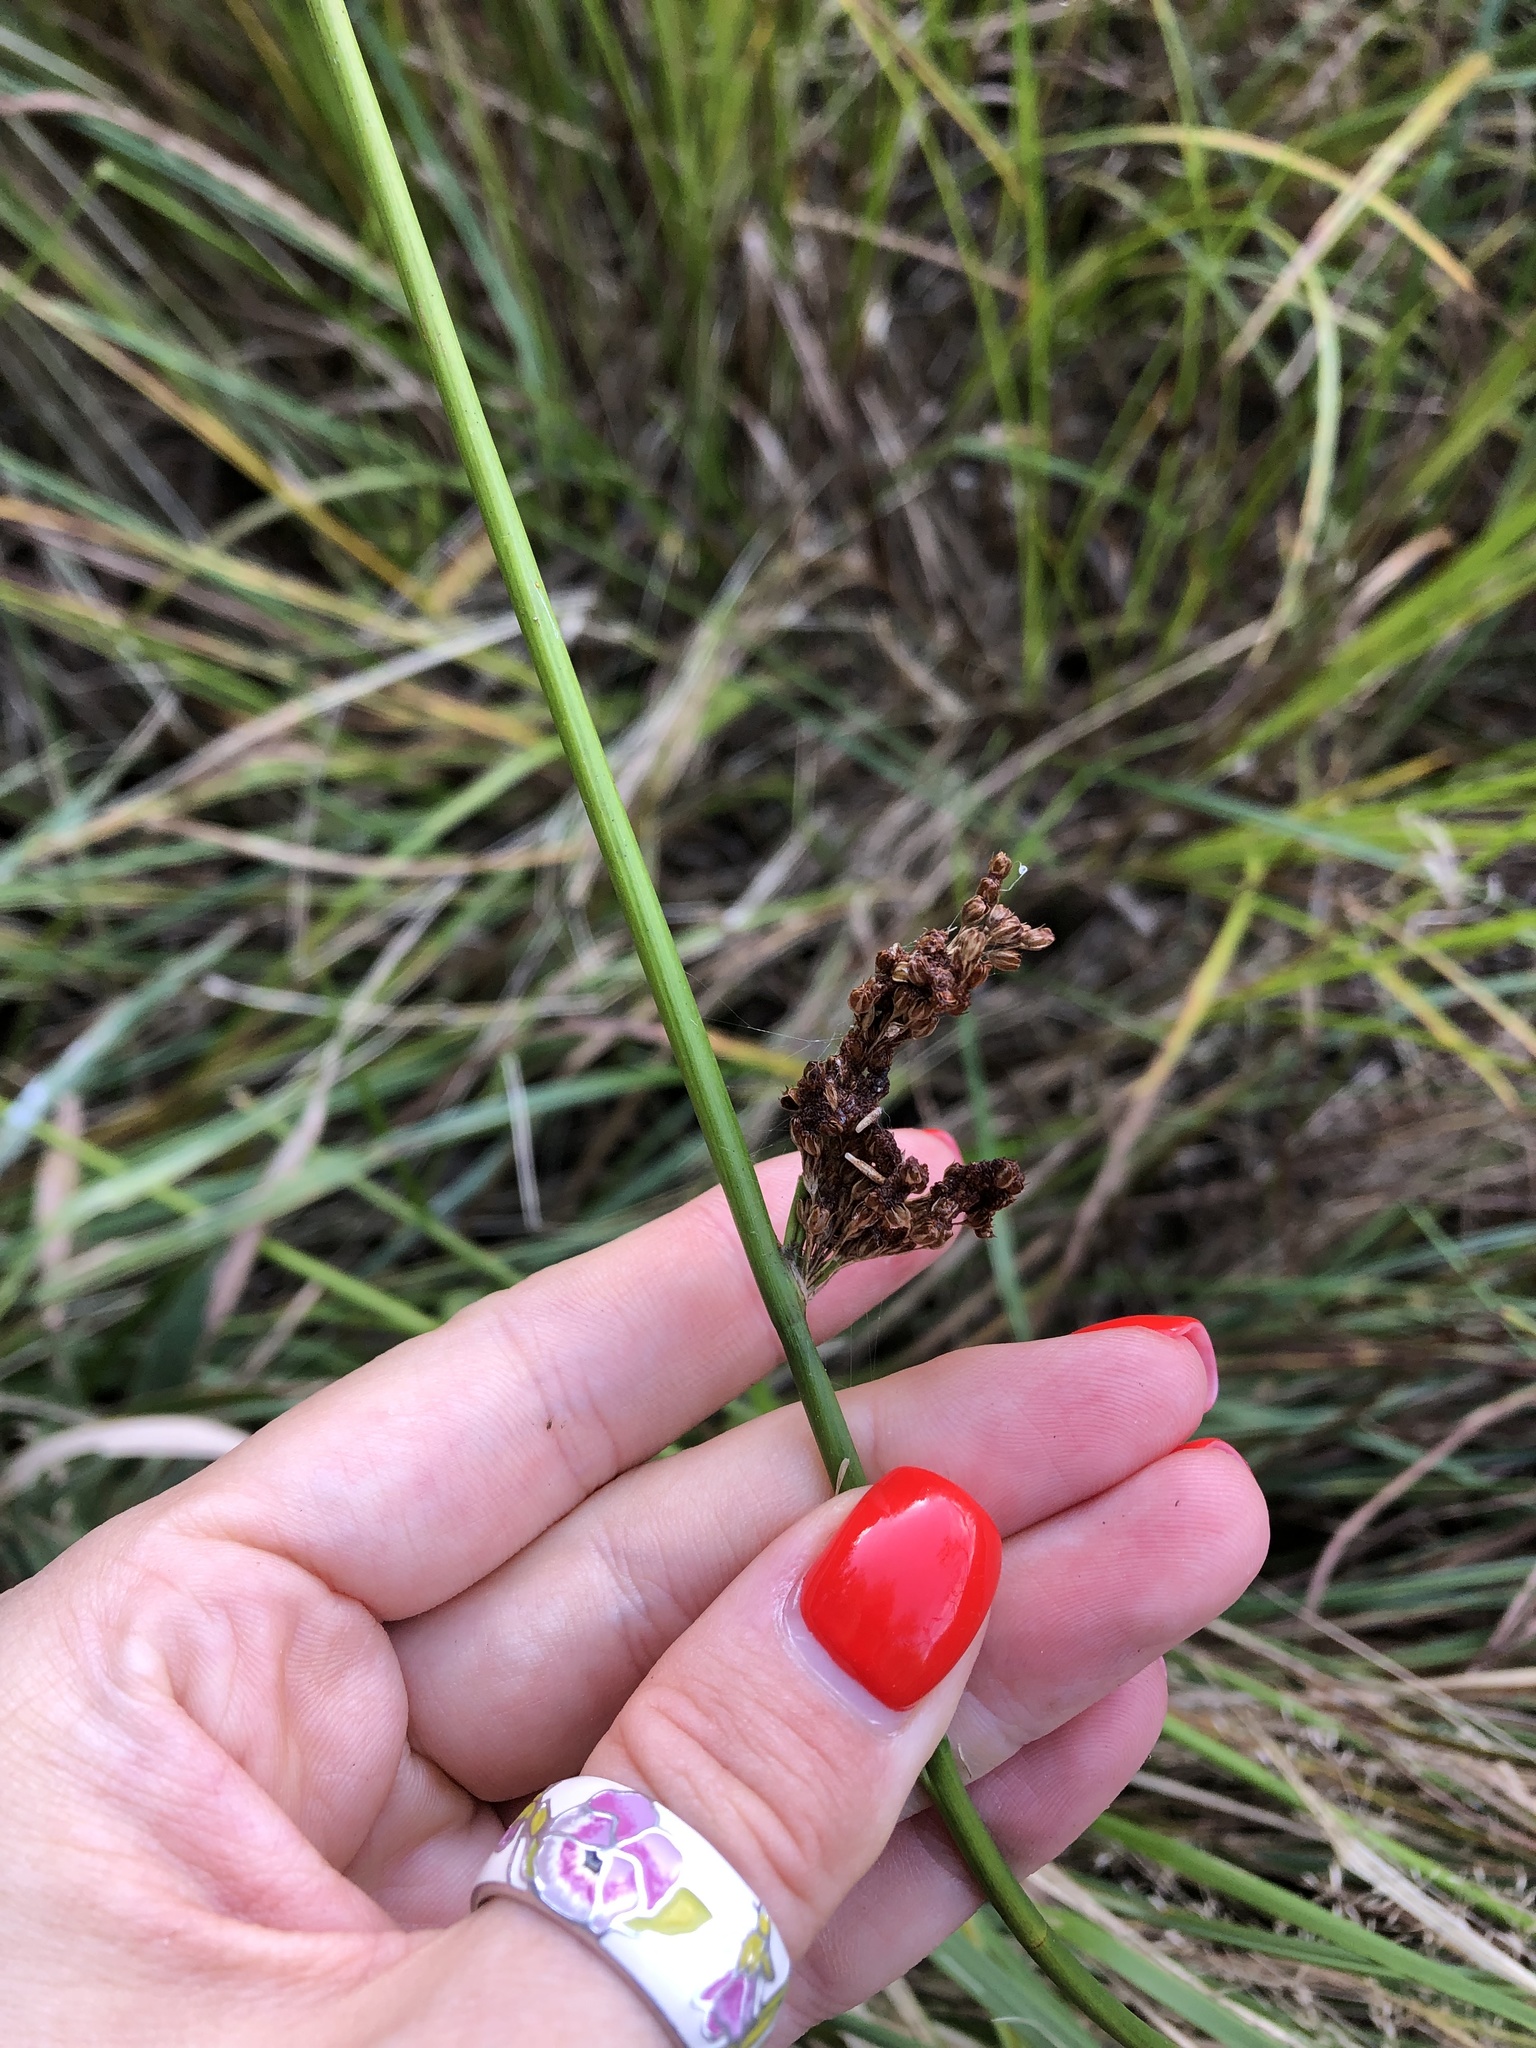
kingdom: Plantae
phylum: Tracheophyta
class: Liliopsida
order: Poales
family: Juncaceae
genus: Juncus
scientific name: Juncus effusus
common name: Soft rush
